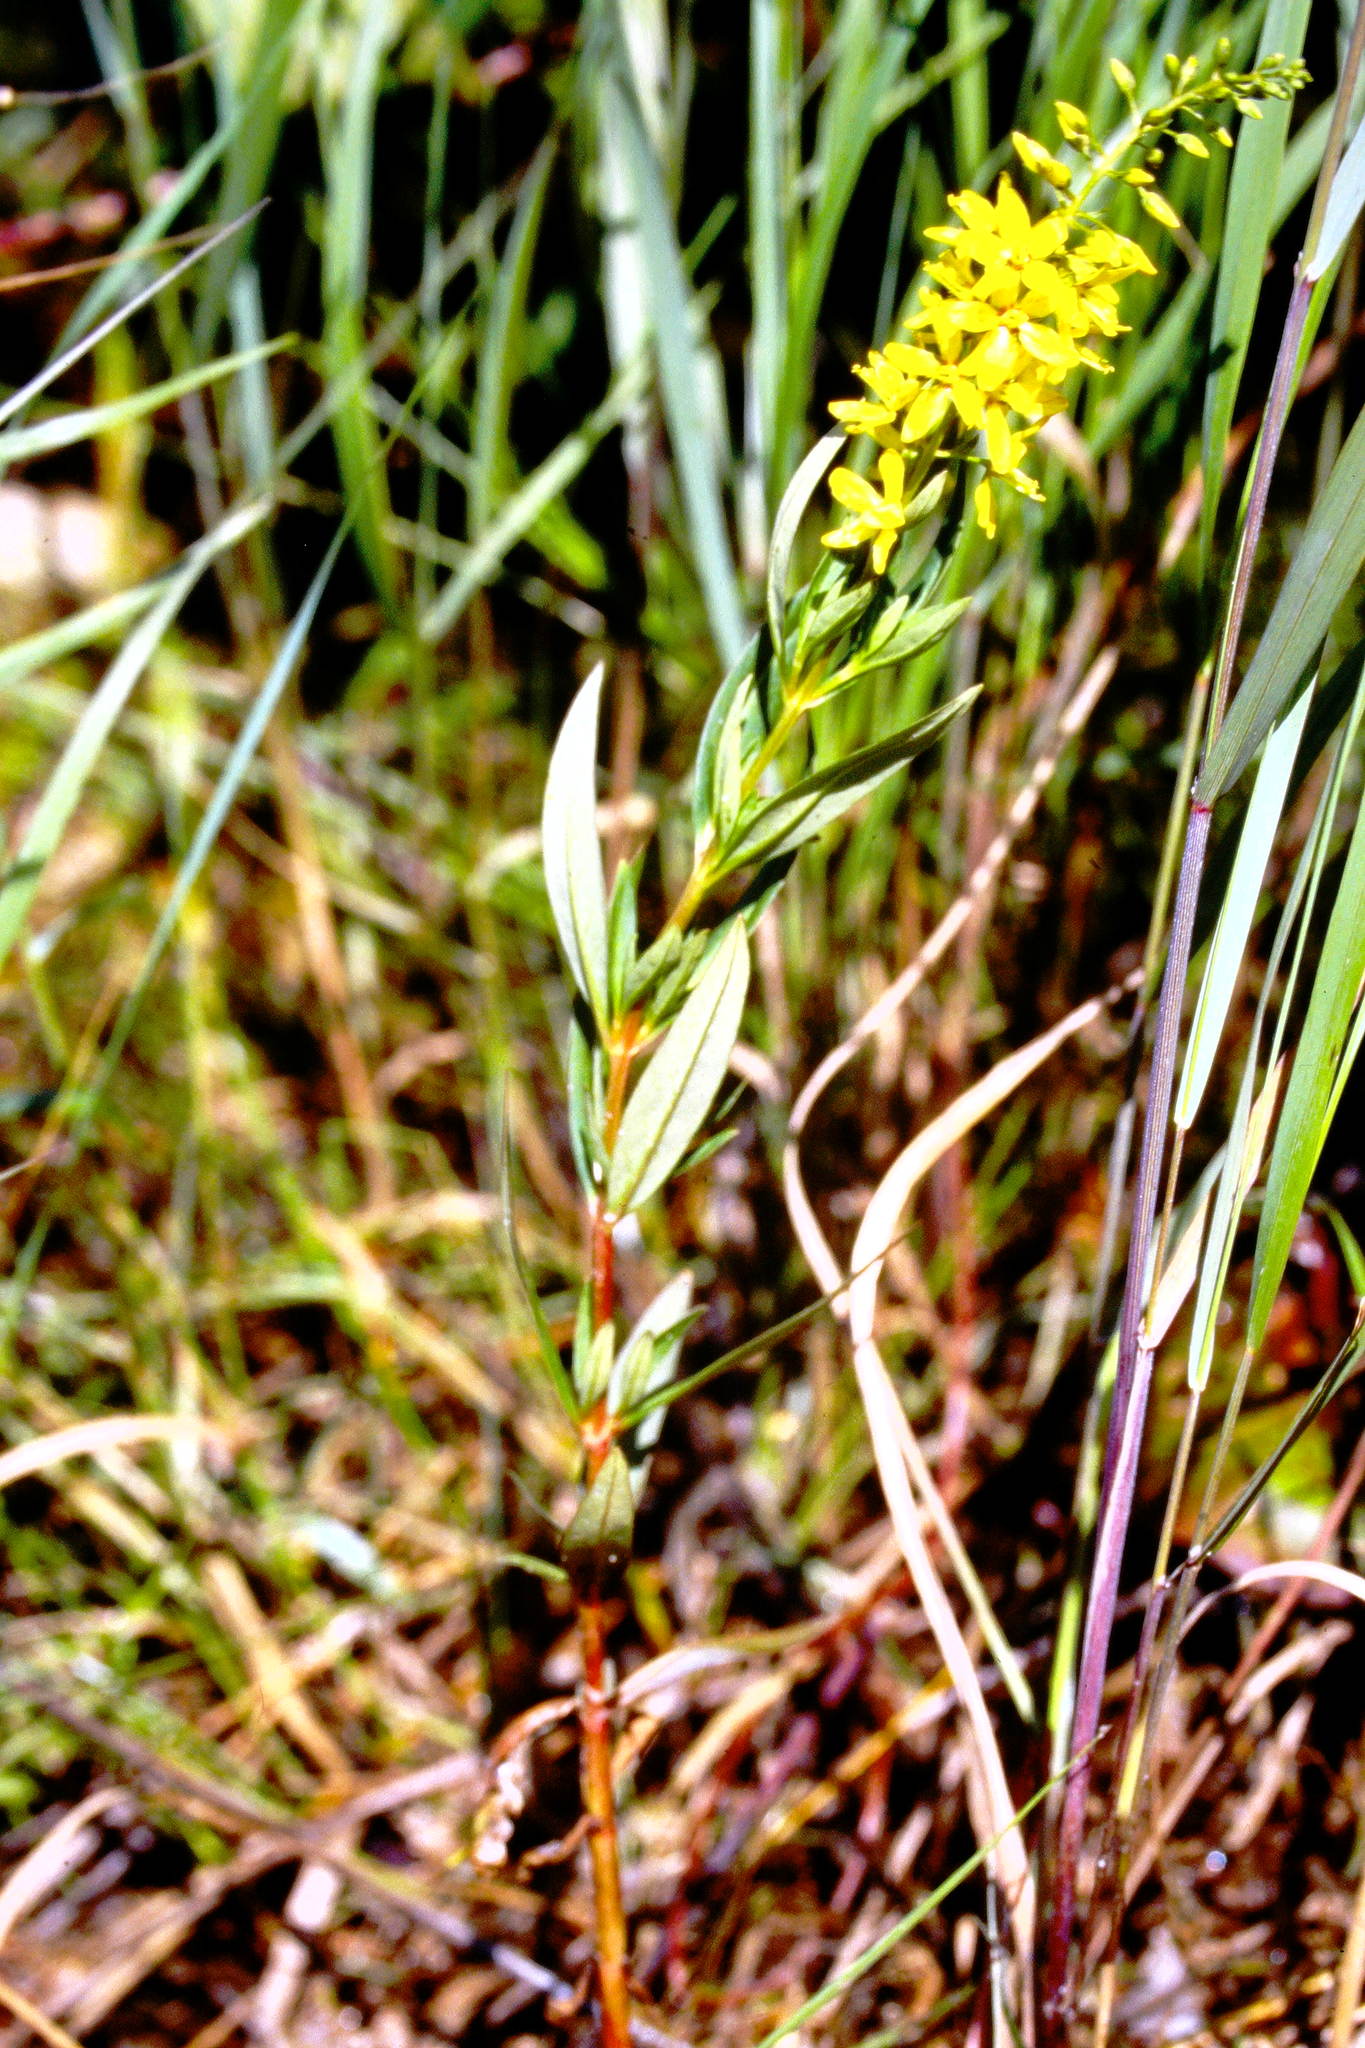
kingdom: Plantae
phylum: Tracheophyta
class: Magnoliopsida
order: Ericales
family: Primulaceae
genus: Lysimachia
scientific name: Lysimachia terrestris
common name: Lake loosestrife
